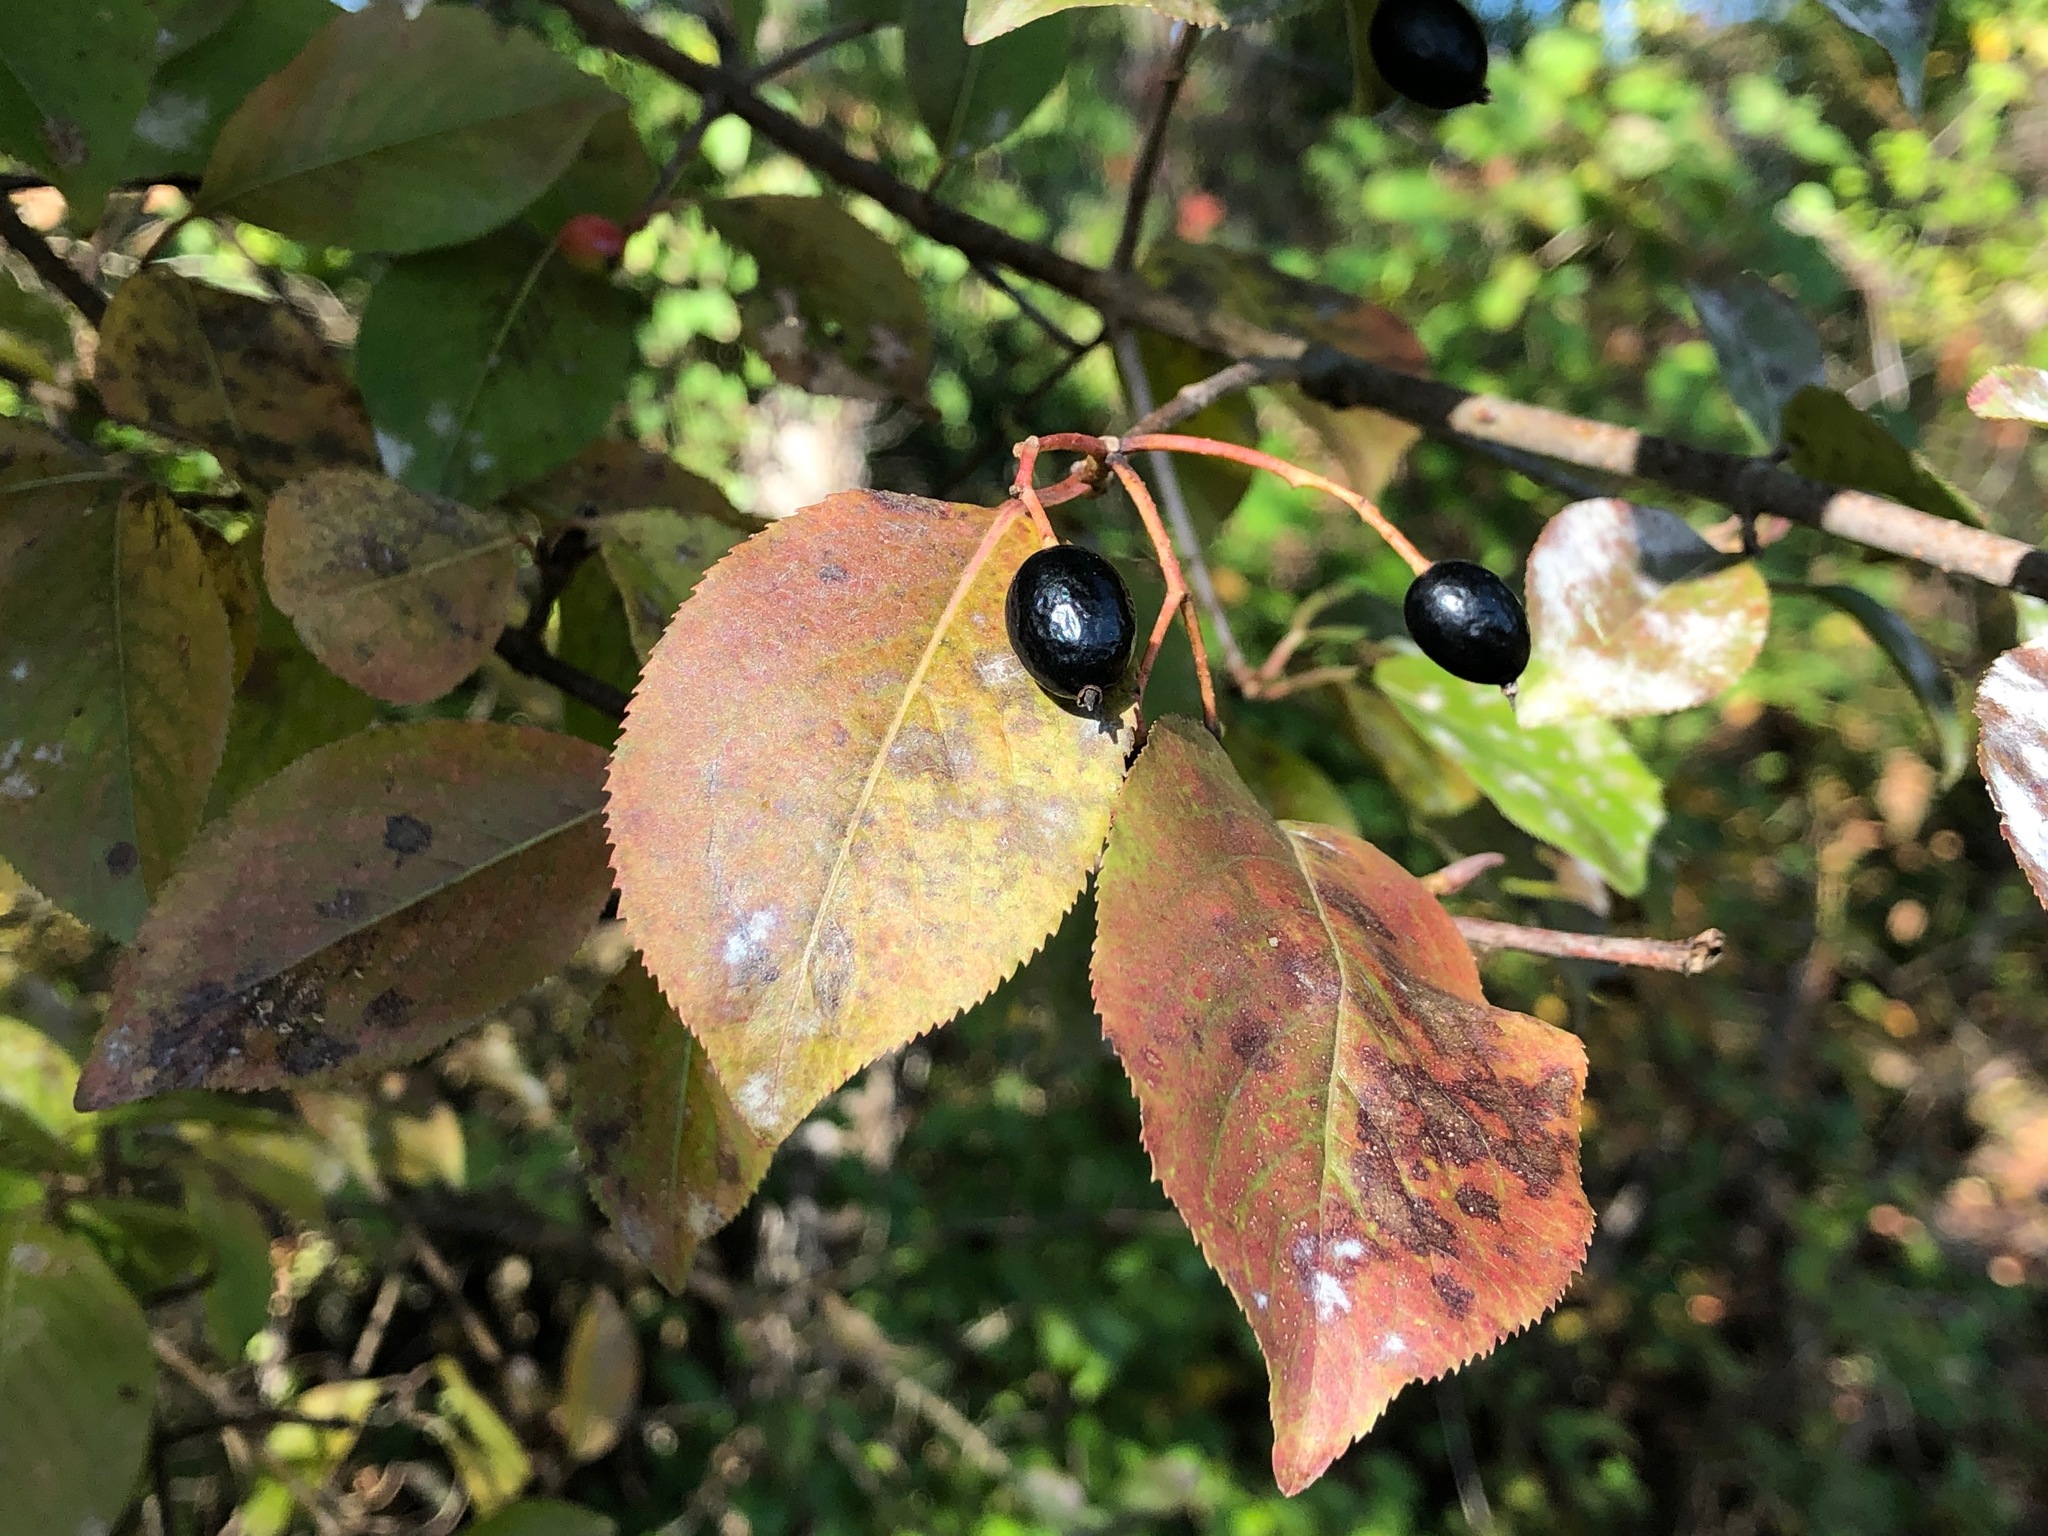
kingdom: Plantae
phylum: Tracheophyta
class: Magnoliopsida
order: Dipsacales
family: Viburnaceae
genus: Viburnum
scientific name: Viburnum prunifolium
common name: Black haw
